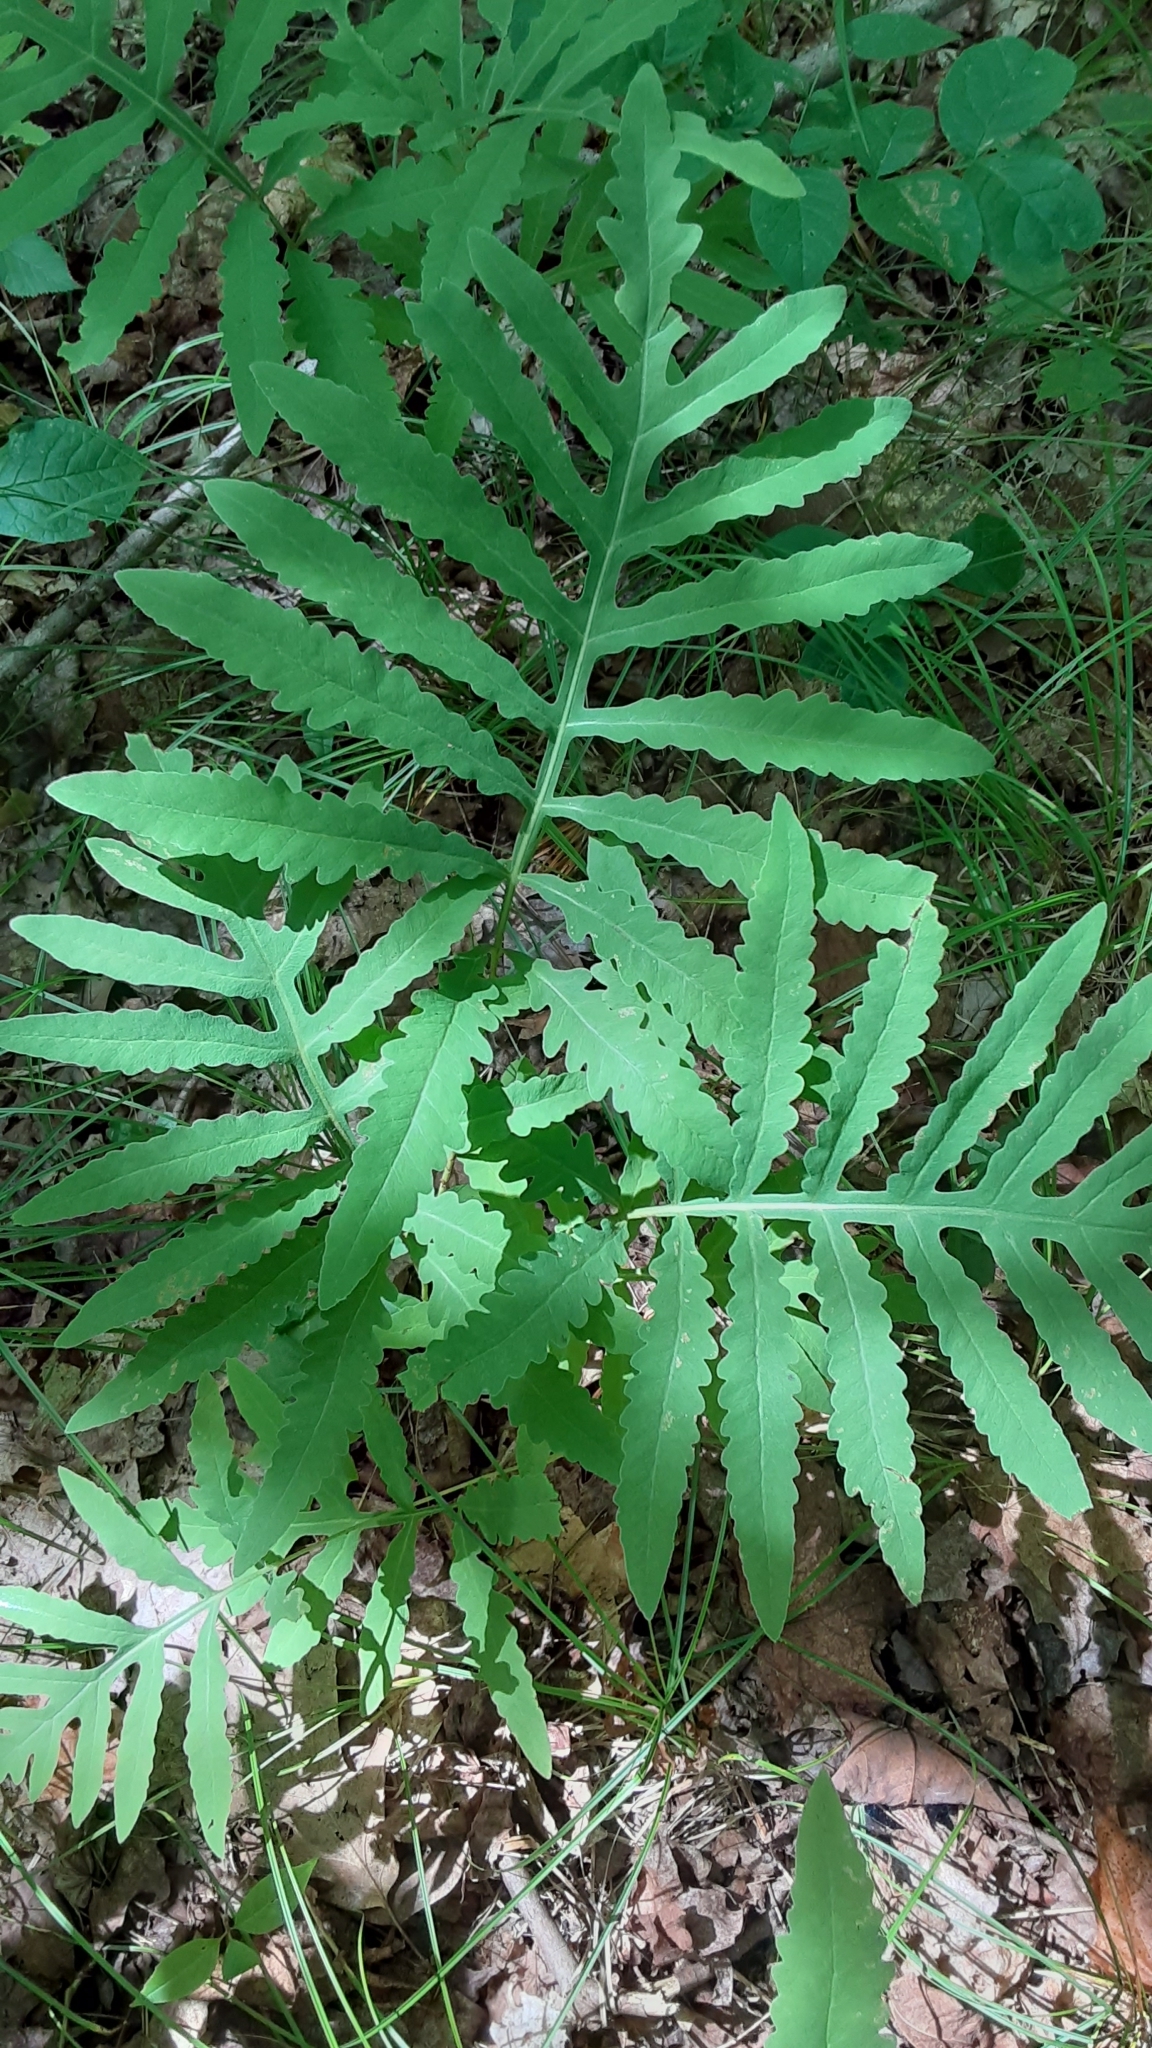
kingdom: Plantae
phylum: Tracheophyta
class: Polypodiopsida
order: Polypodiales
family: Onocleaceae
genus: Onoclea
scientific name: Onoclea sensibilis
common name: Sensitive fern
